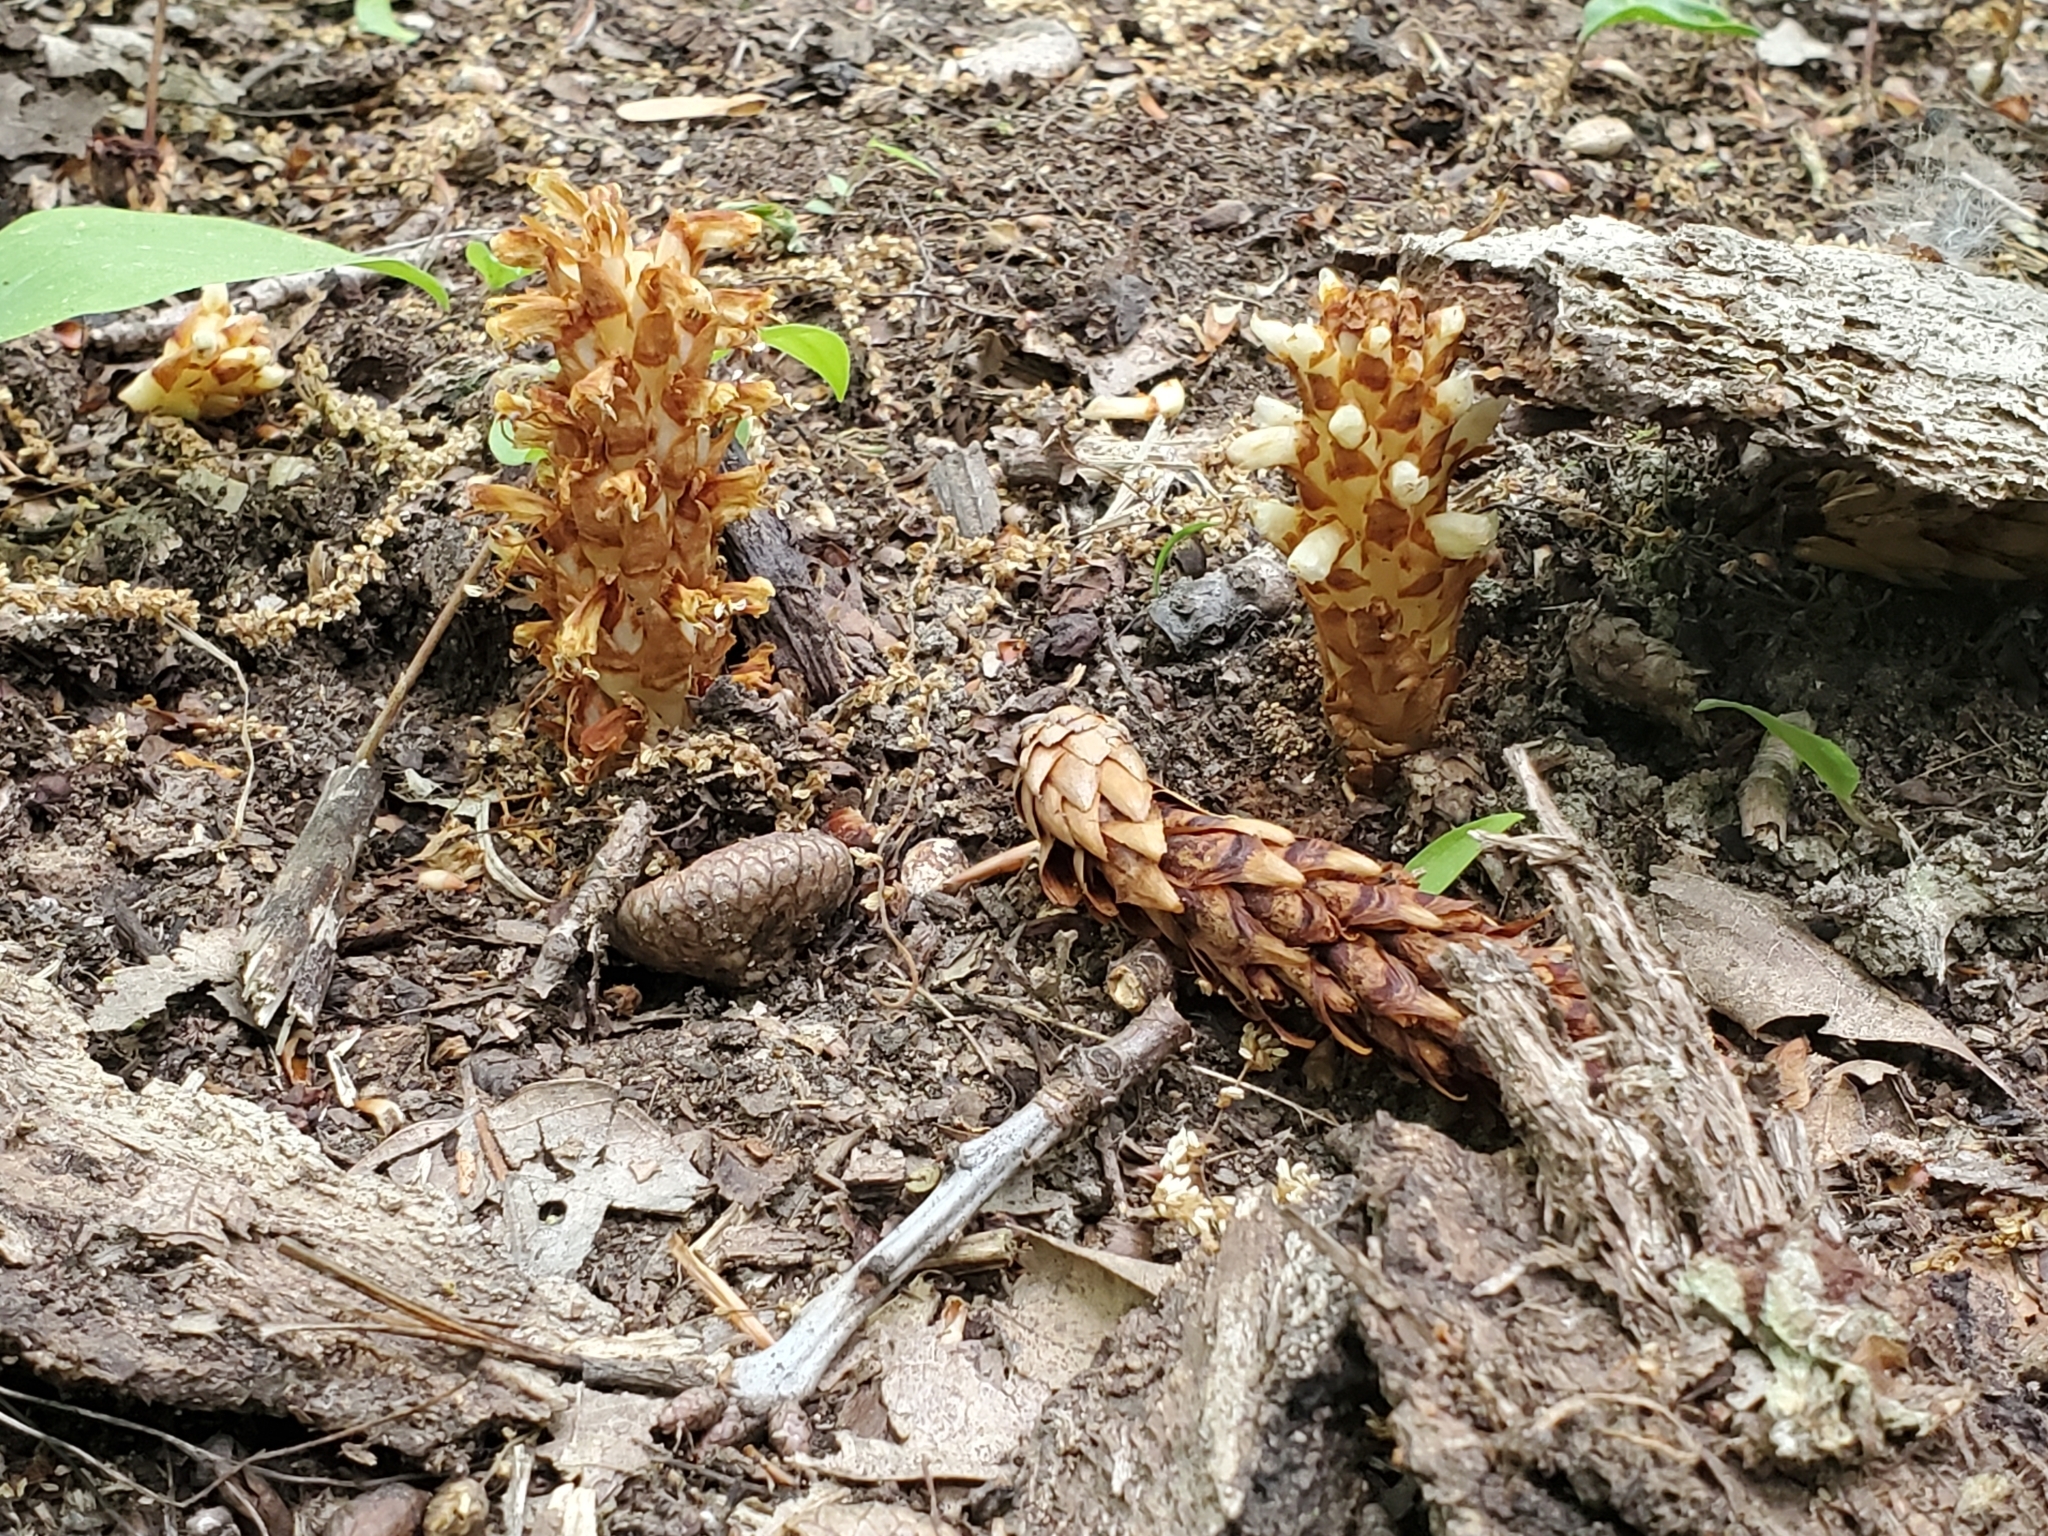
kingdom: Plantae
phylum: Tracheophyta
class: Magnoliopsida
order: Lamiales
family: Orobanchaceae
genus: Conopholis
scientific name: Conopholis americana
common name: American cancer-root
